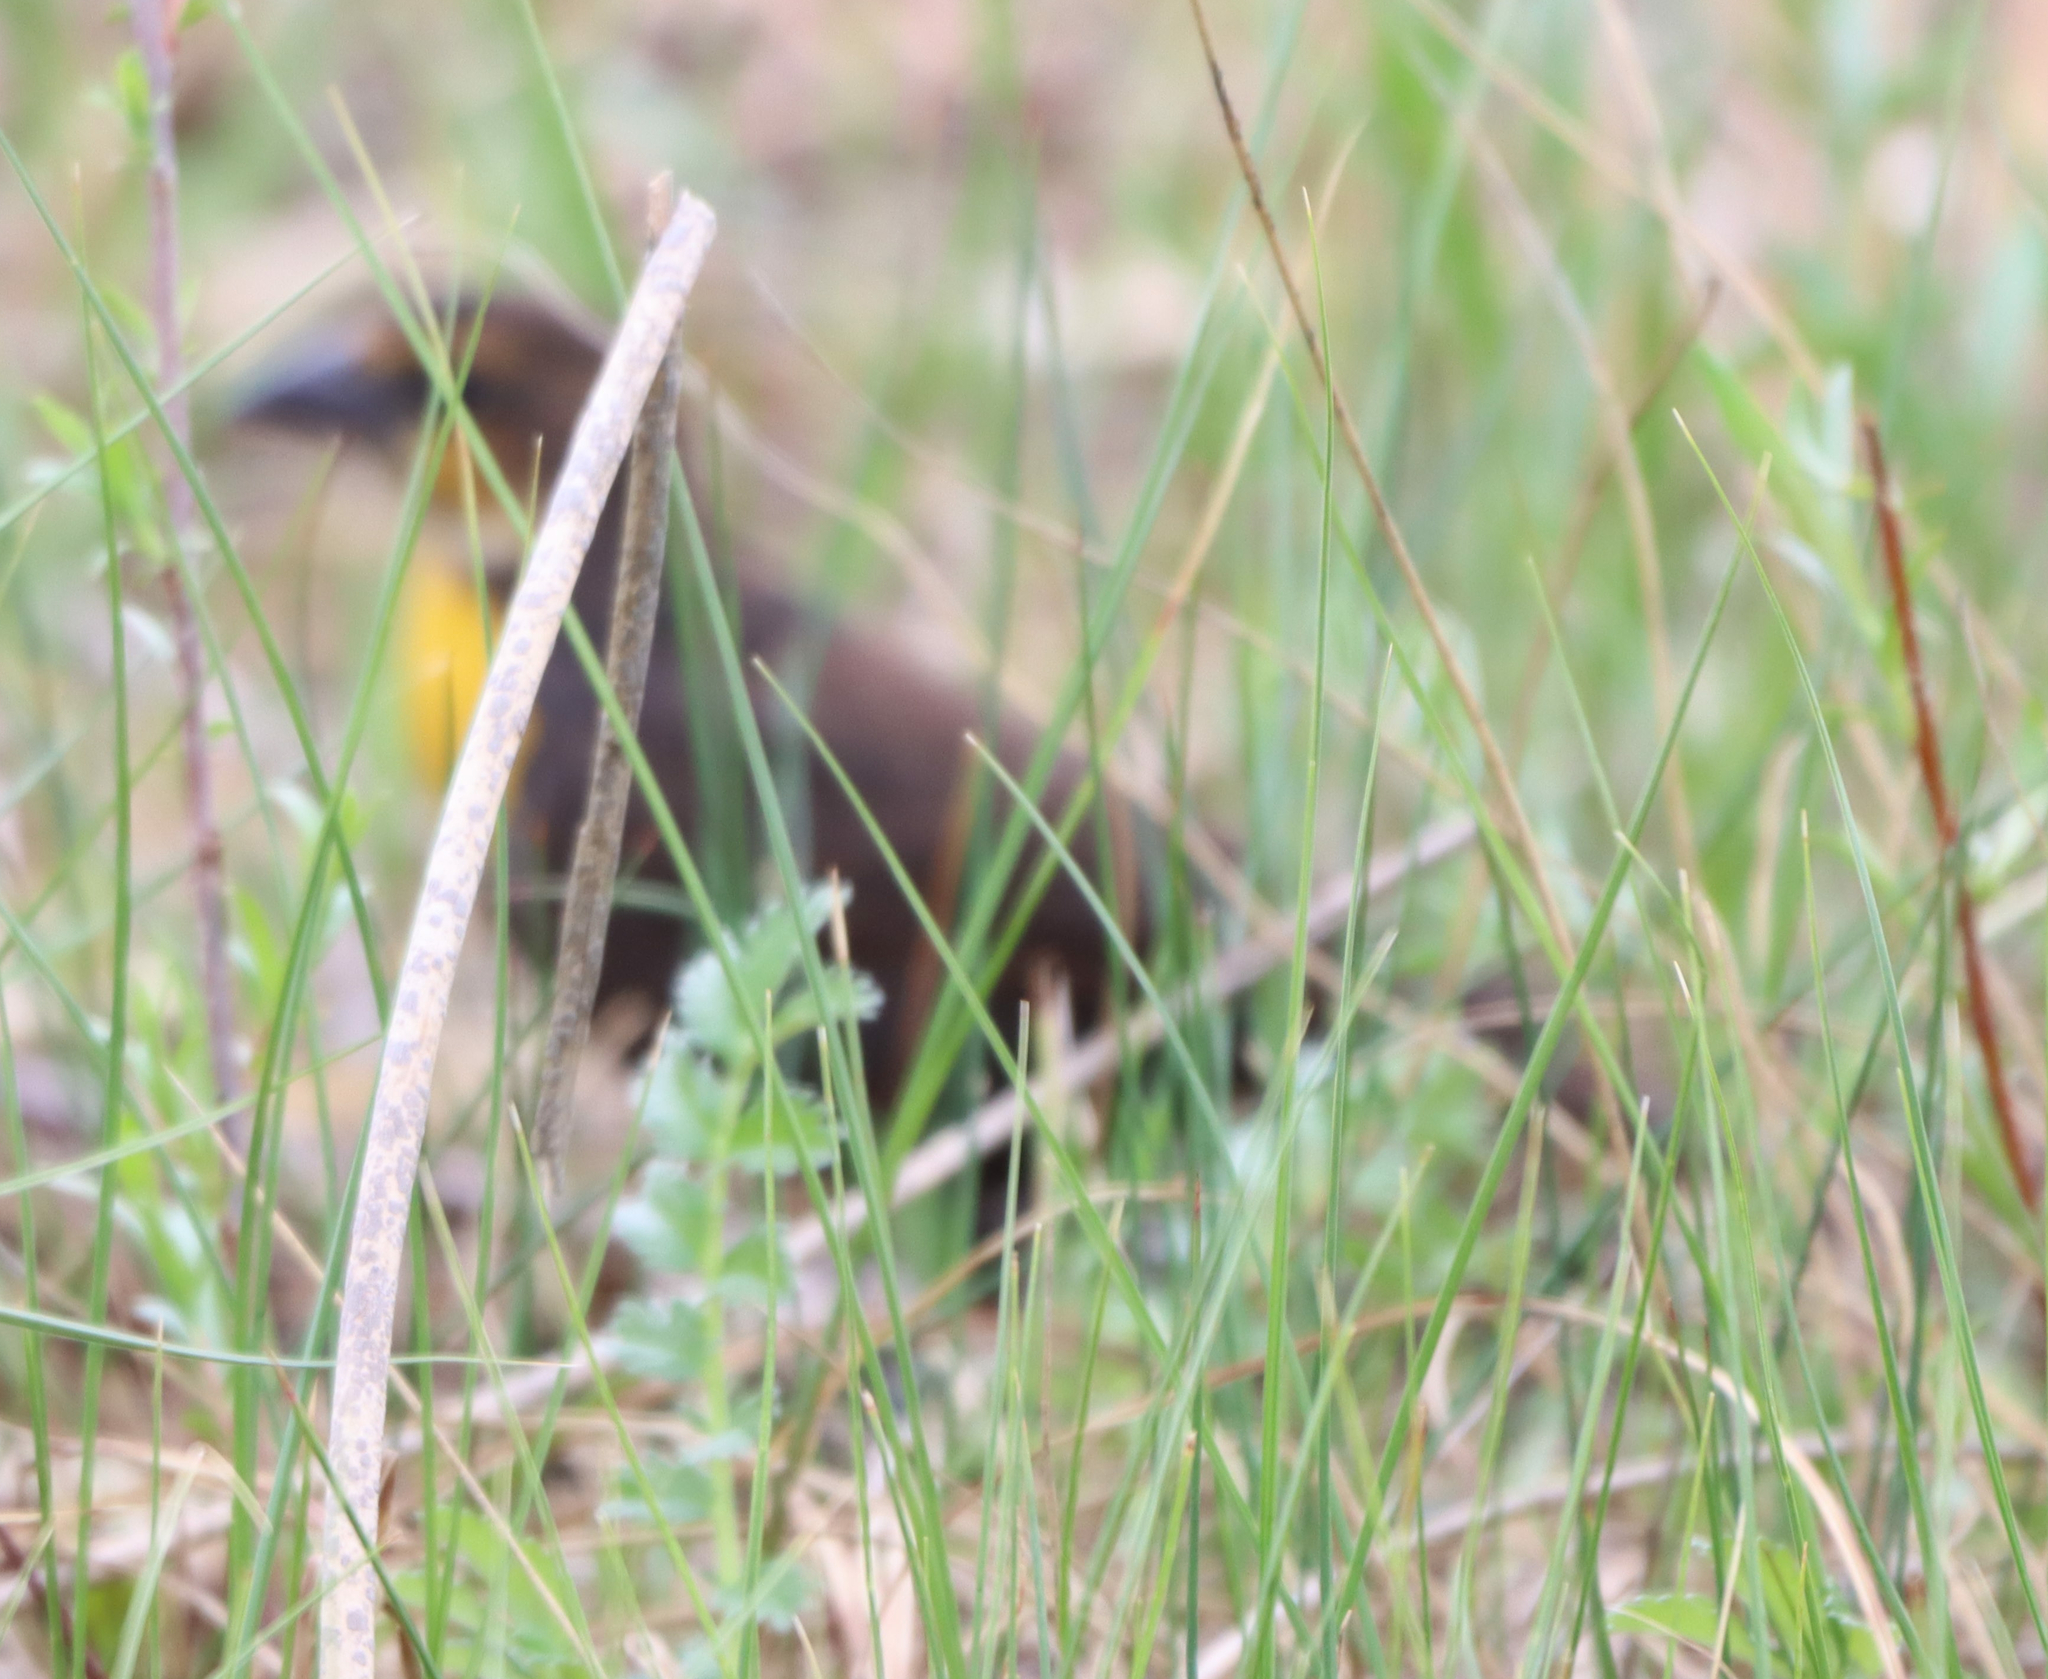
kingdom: Animalia
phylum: Chordata
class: Aves
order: Passeriformes
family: Icteridae
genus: Xanthocephalus
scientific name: Xanthocephalus xanthocephalus
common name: Yellow-headed blackbird
